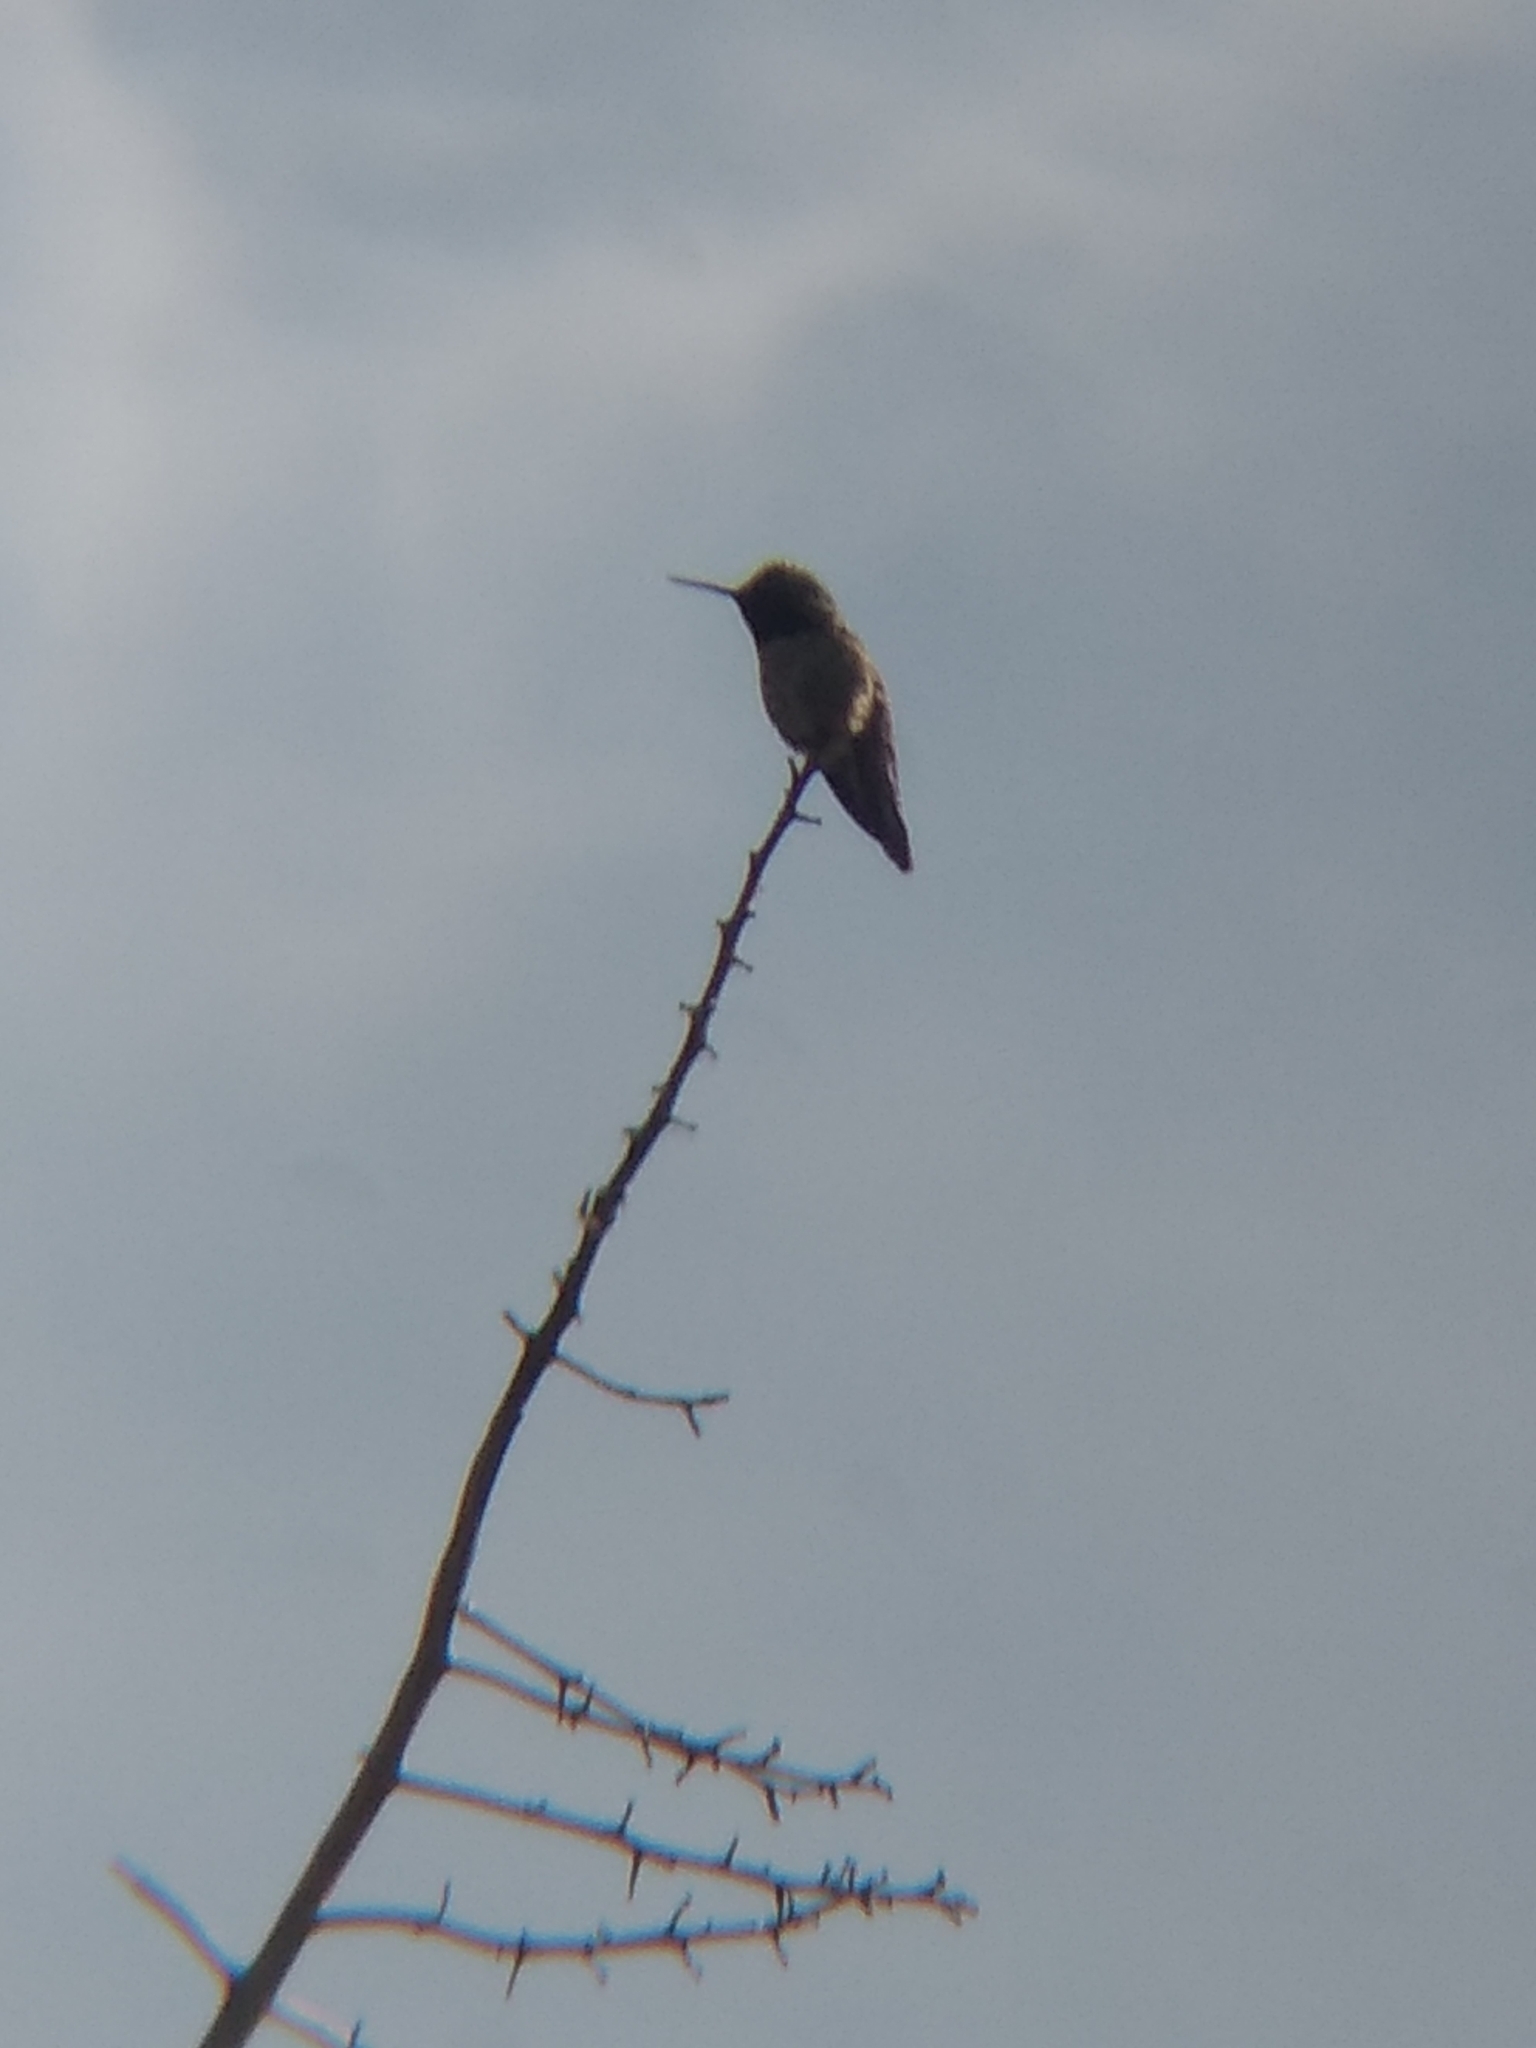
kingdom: Animalia
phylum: Chordata
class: Aves
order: Apodiformes
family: Trochilidae
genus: Calypte
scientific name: Calypte anna
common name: Anna's hummingbird
